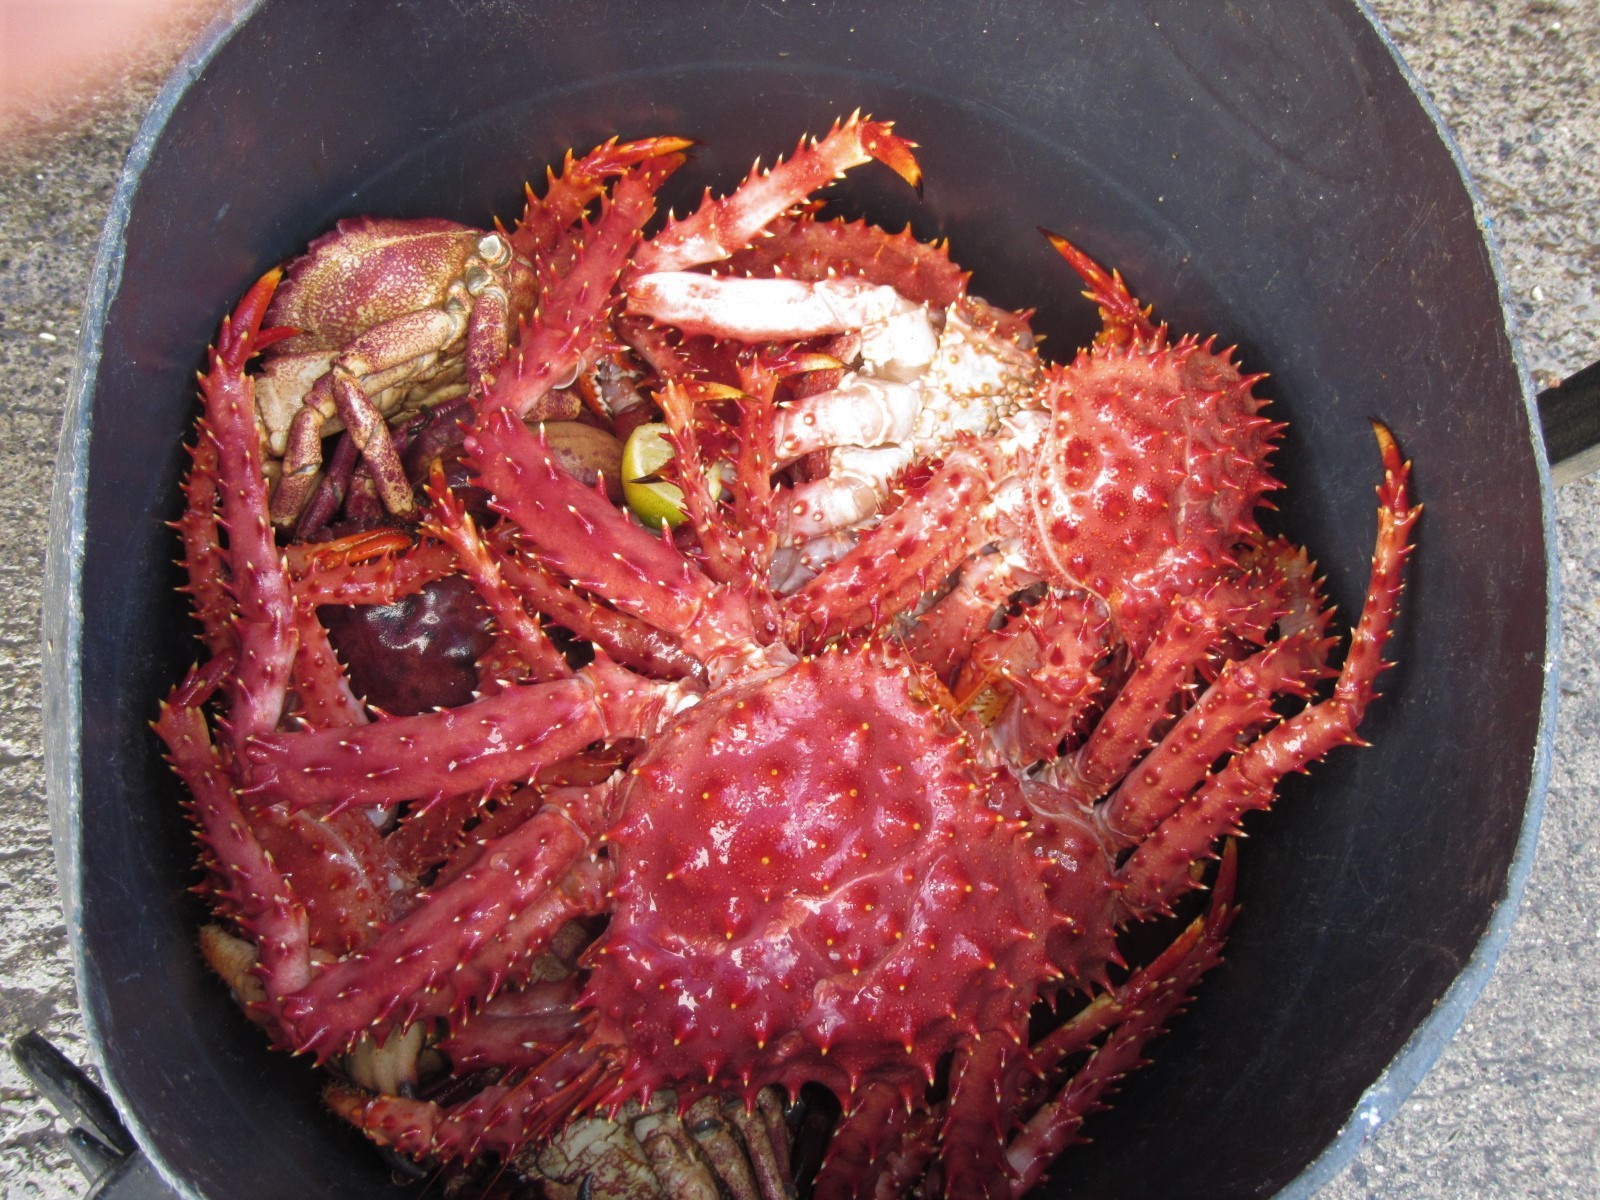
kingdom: Animalia
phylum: Arthropoda
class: Malacostraca
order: Decapoda
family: Lithodidae
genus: Lithodes
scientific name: Lithodes santolla
